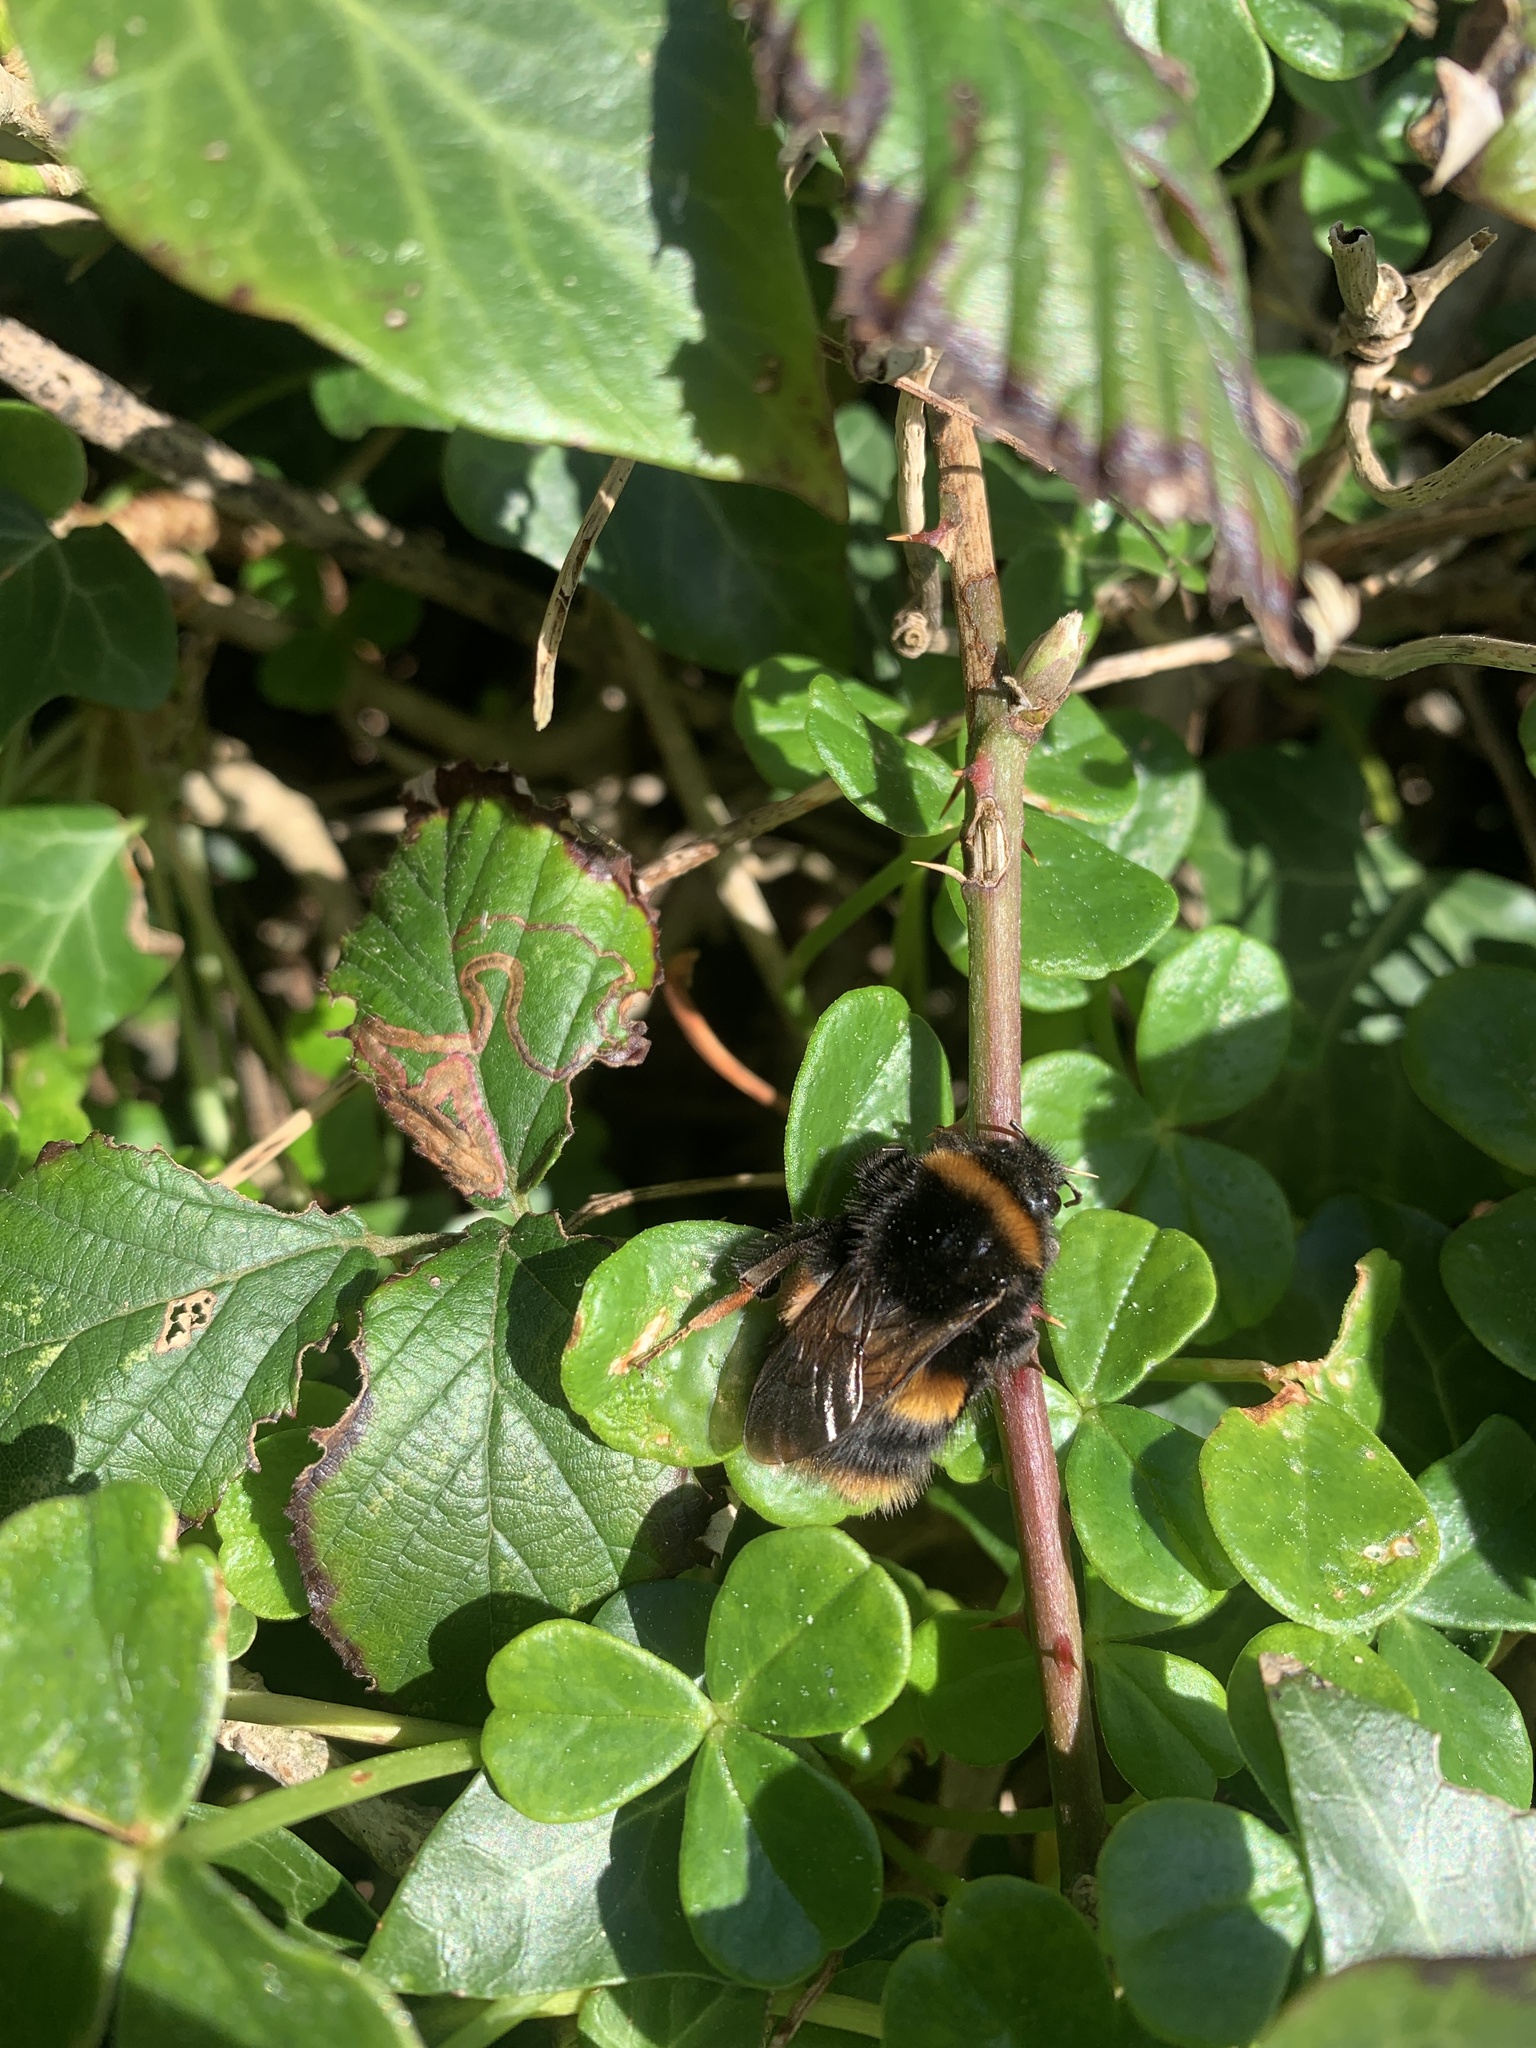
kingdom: Animalia
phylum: Arthropoda
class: Insecta
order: Hymenoptera
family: Apidae
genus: Bombus
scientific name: Bombus terrestris
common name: Buff-tailed bumblebee
